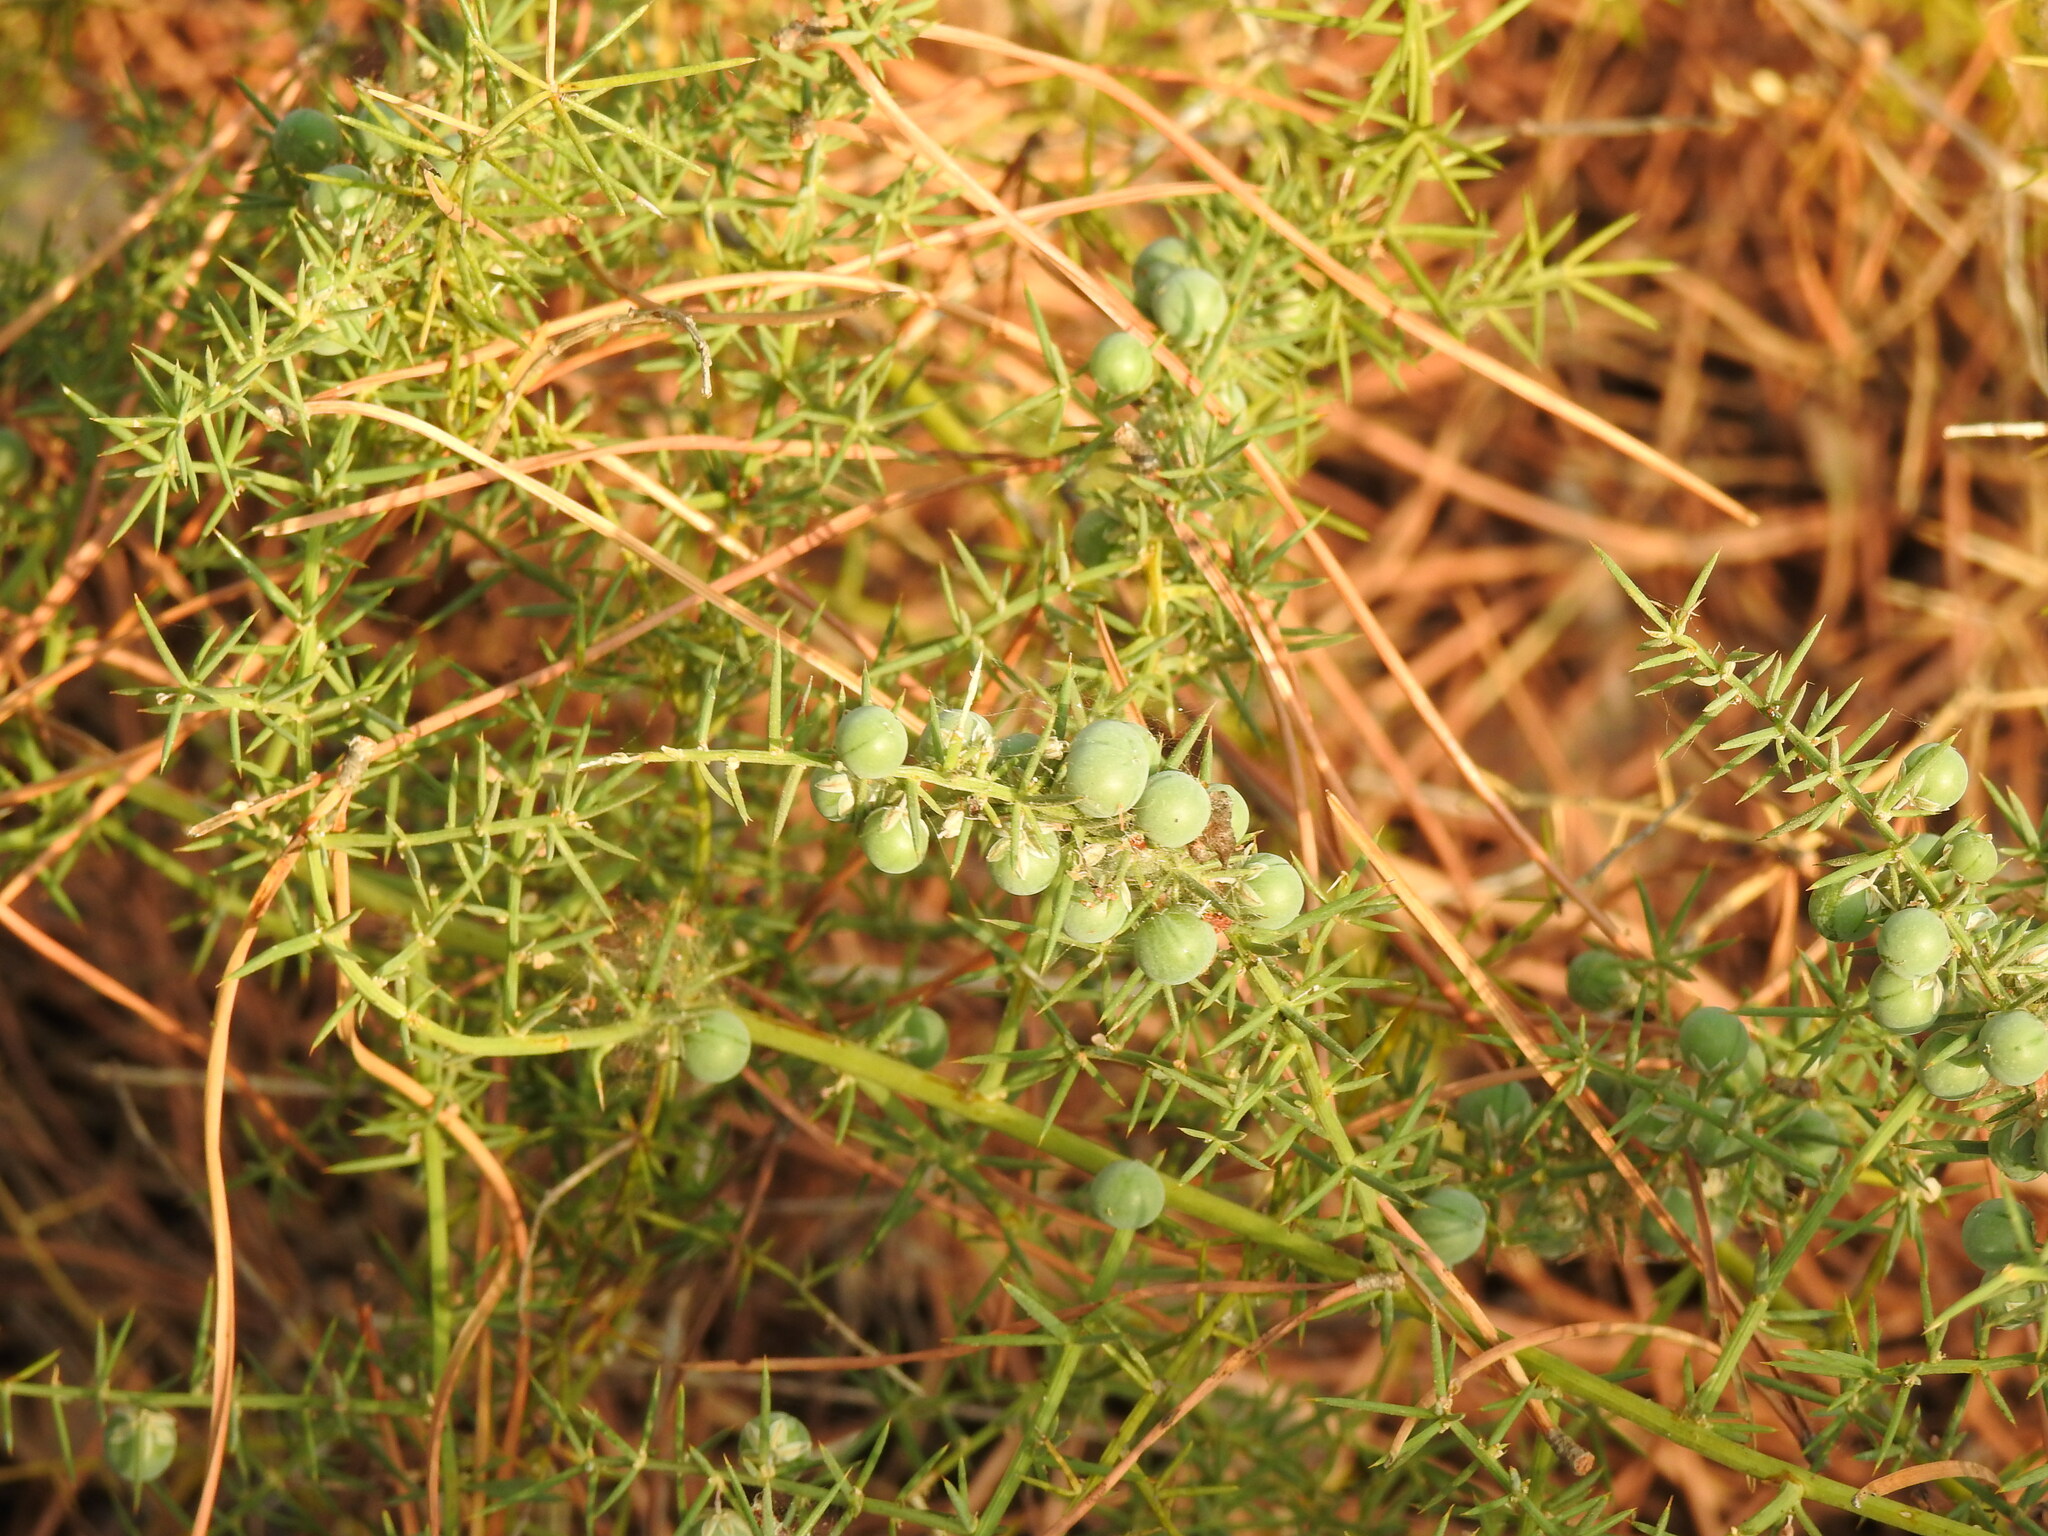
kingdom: Plantae
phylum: Tracheophyta
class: Liliopsida
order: Asparagales
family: Asparagaceae
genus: Asparagus
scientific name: Asparagus aphyllus
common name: Mediterranean asparagus
